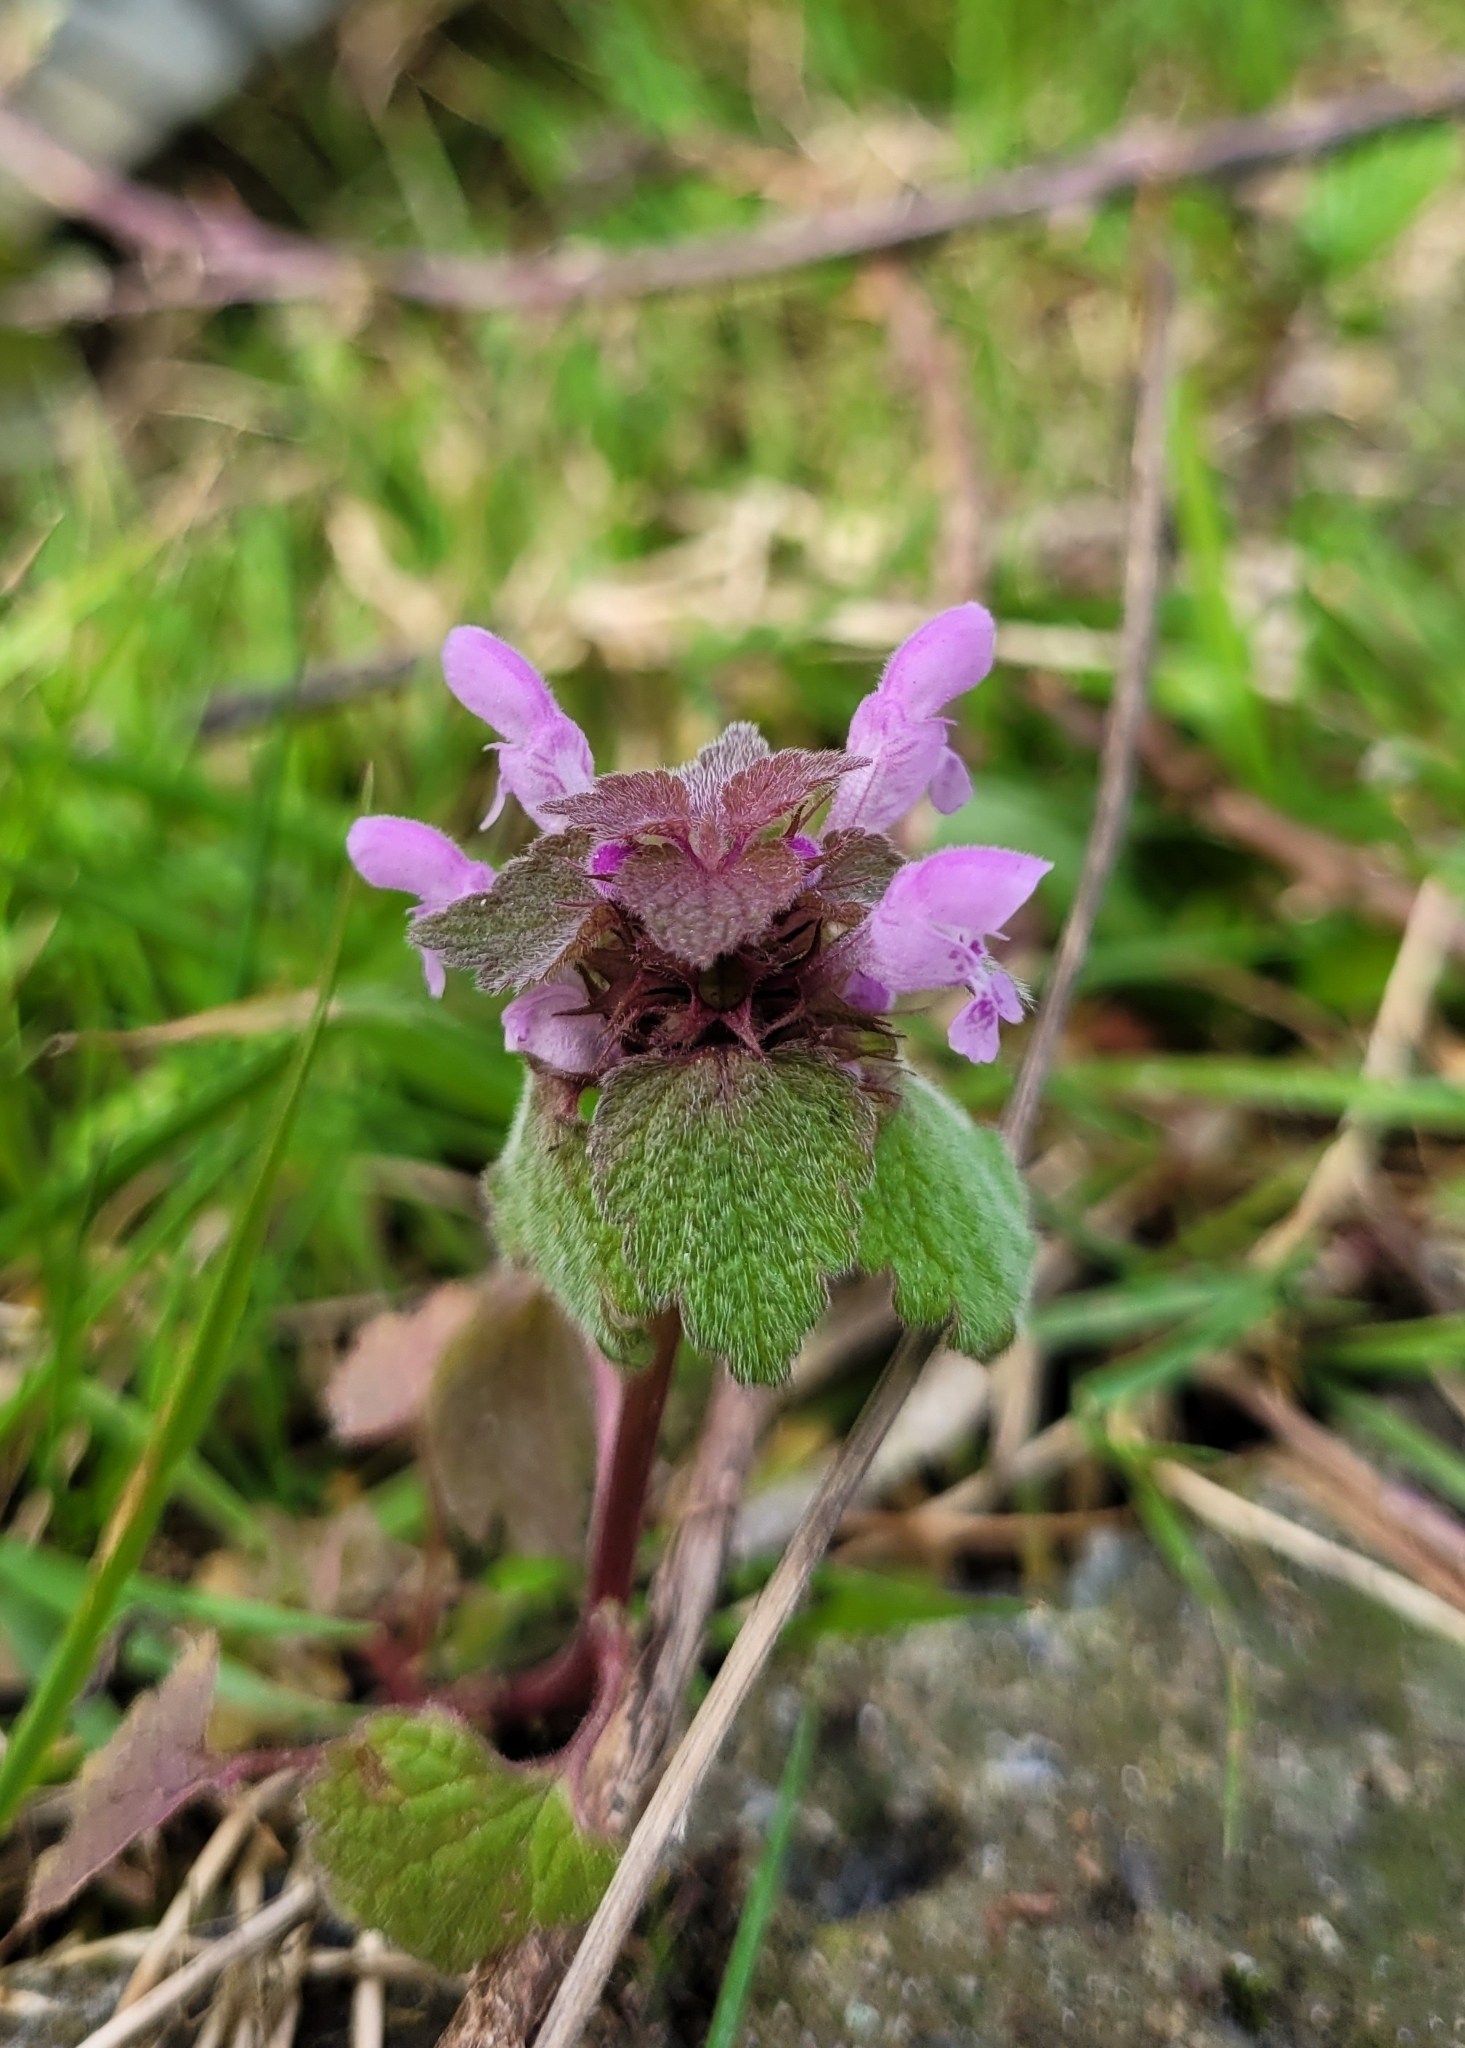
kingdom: Plantae
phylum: Tracheophyta
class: Magnoliopsida
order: Lamiales
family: Lamiaceae
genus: Lamium
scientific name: Lamium purpureum
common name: Red dead-nettle
